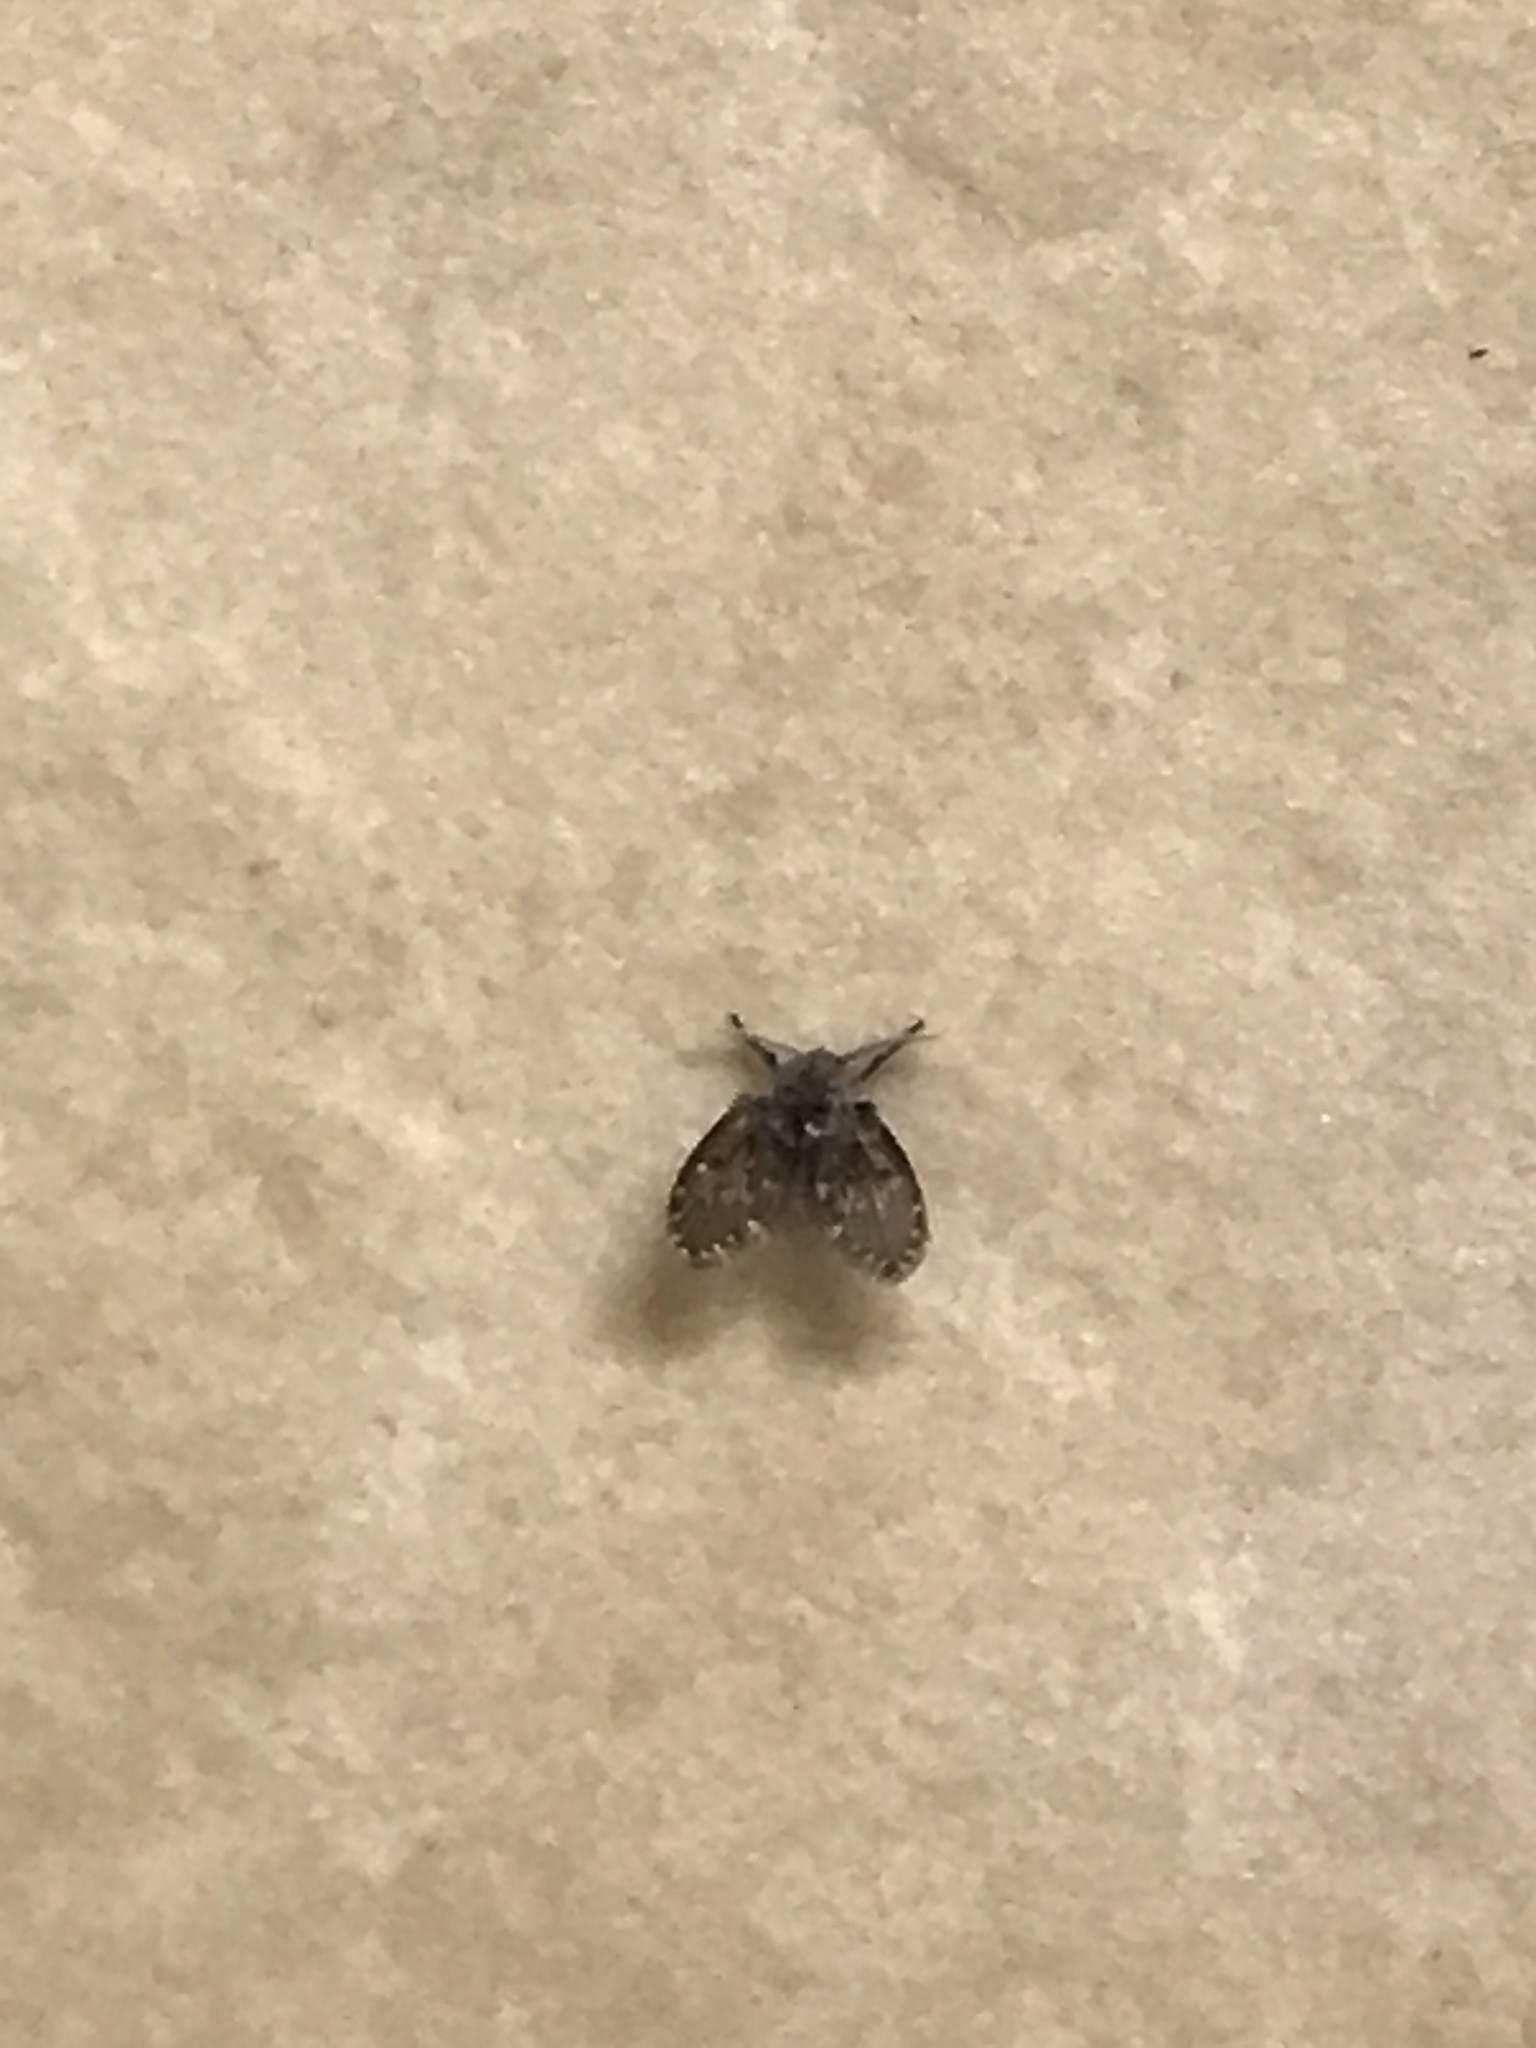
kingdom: Animalia
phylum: Arthropoda
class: Insecta
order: Diptera
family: Psychodidae
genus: Clogmia
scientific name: Clogmia albipunctatus
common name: White-spotted moth fly
